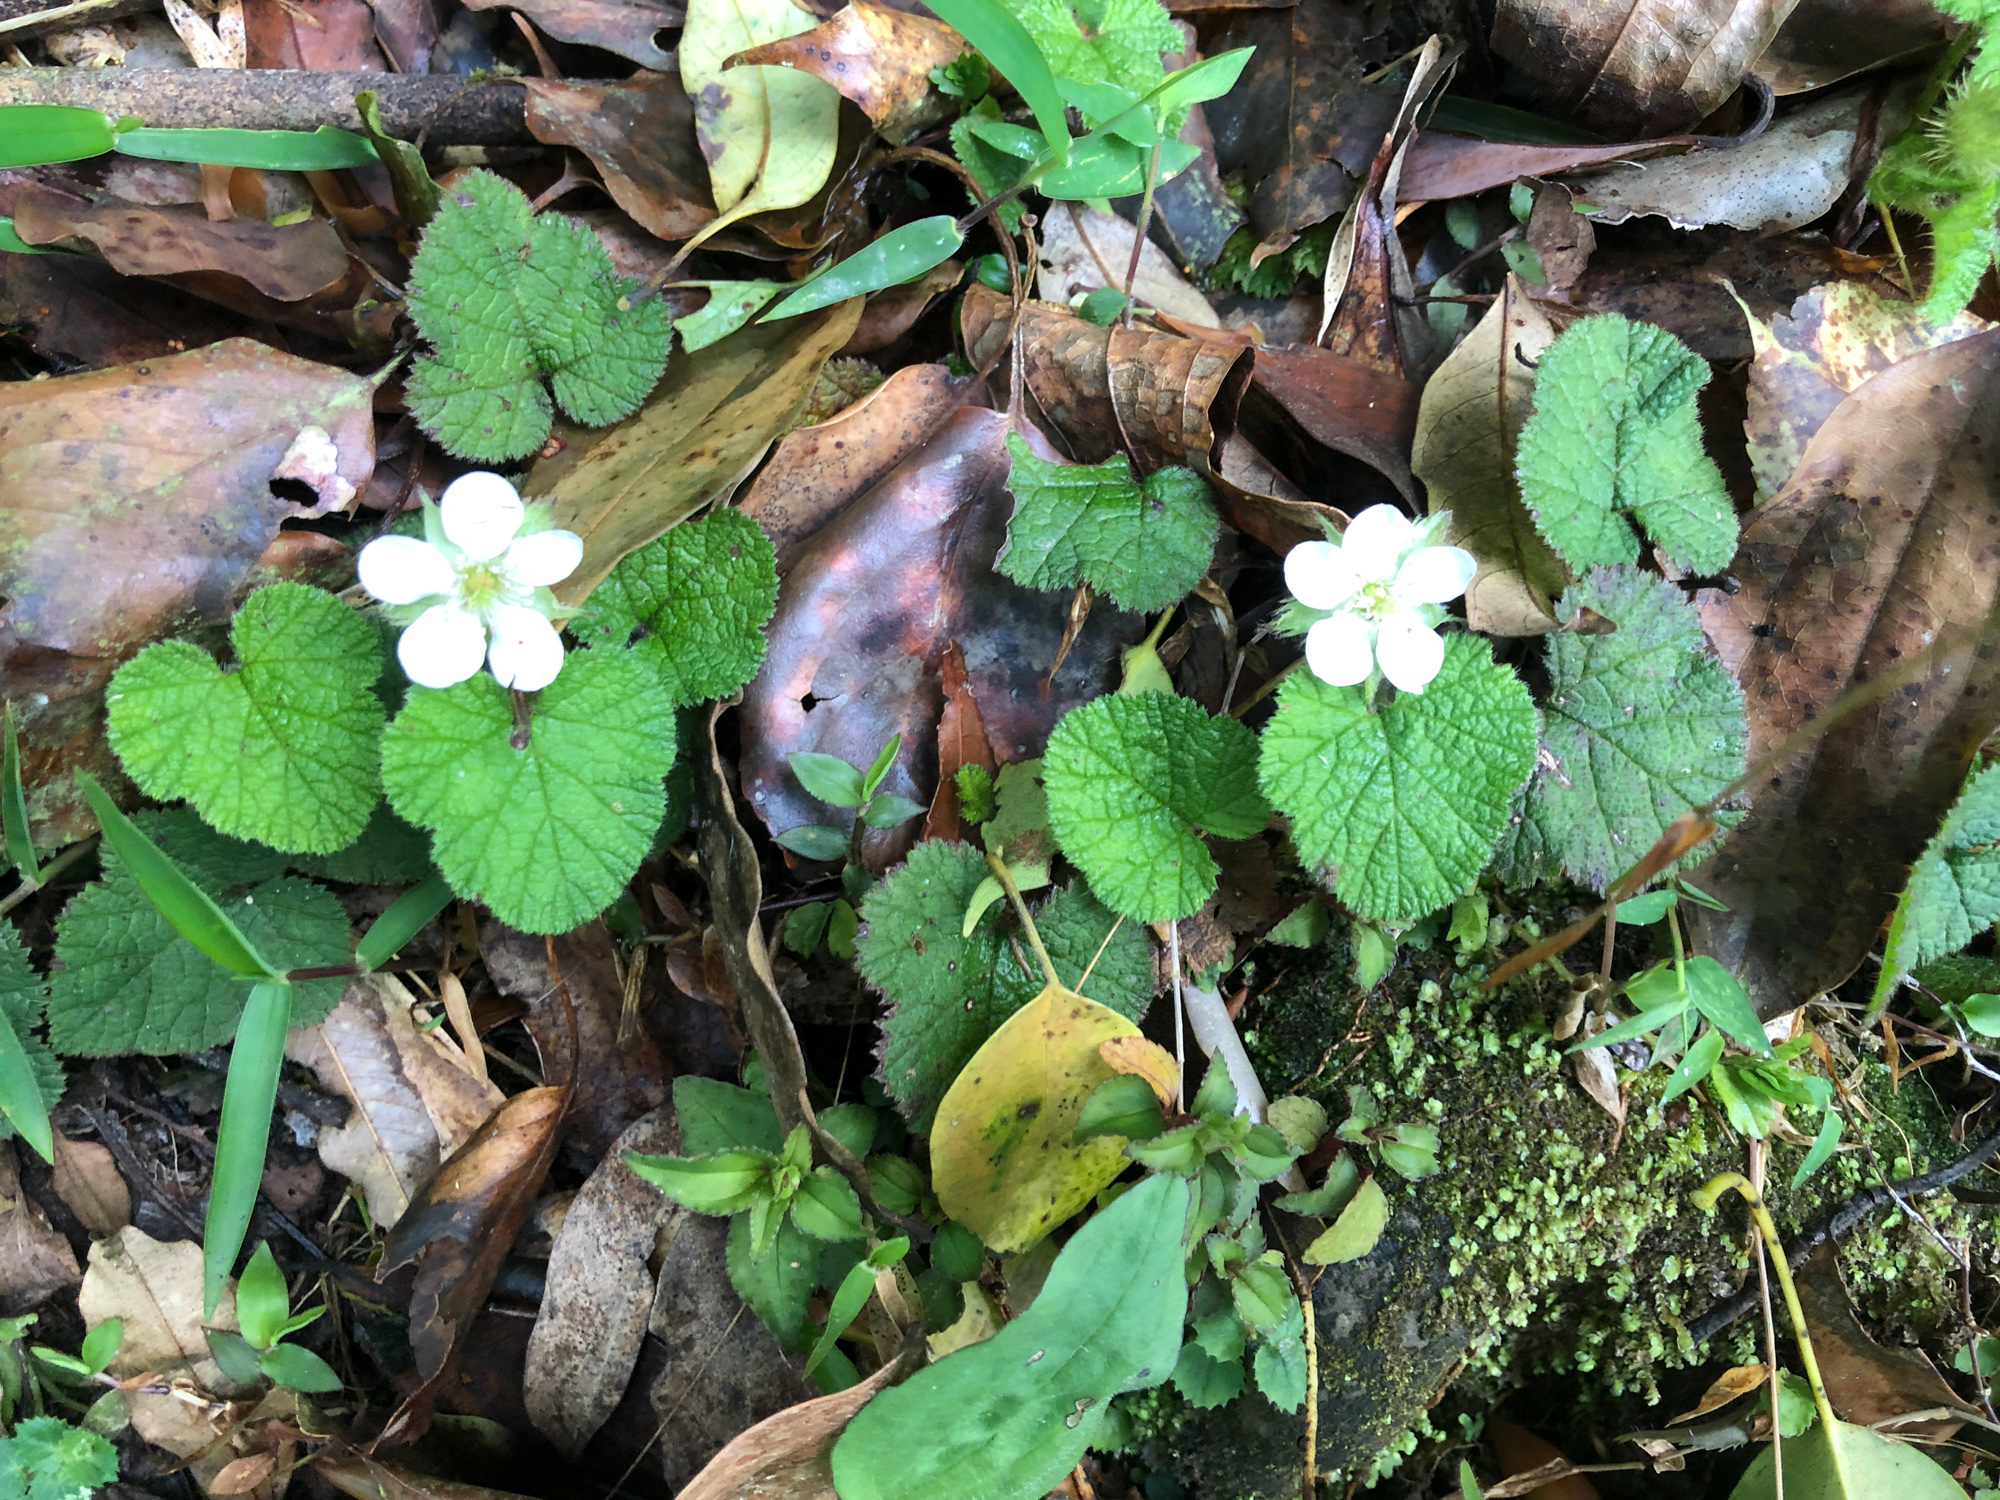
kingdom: Plantae
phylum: Tracheophyta
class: Magnoliopsida
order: Rosales
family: Rosaceae
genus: Rubus
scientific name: Rubus pectinellus
